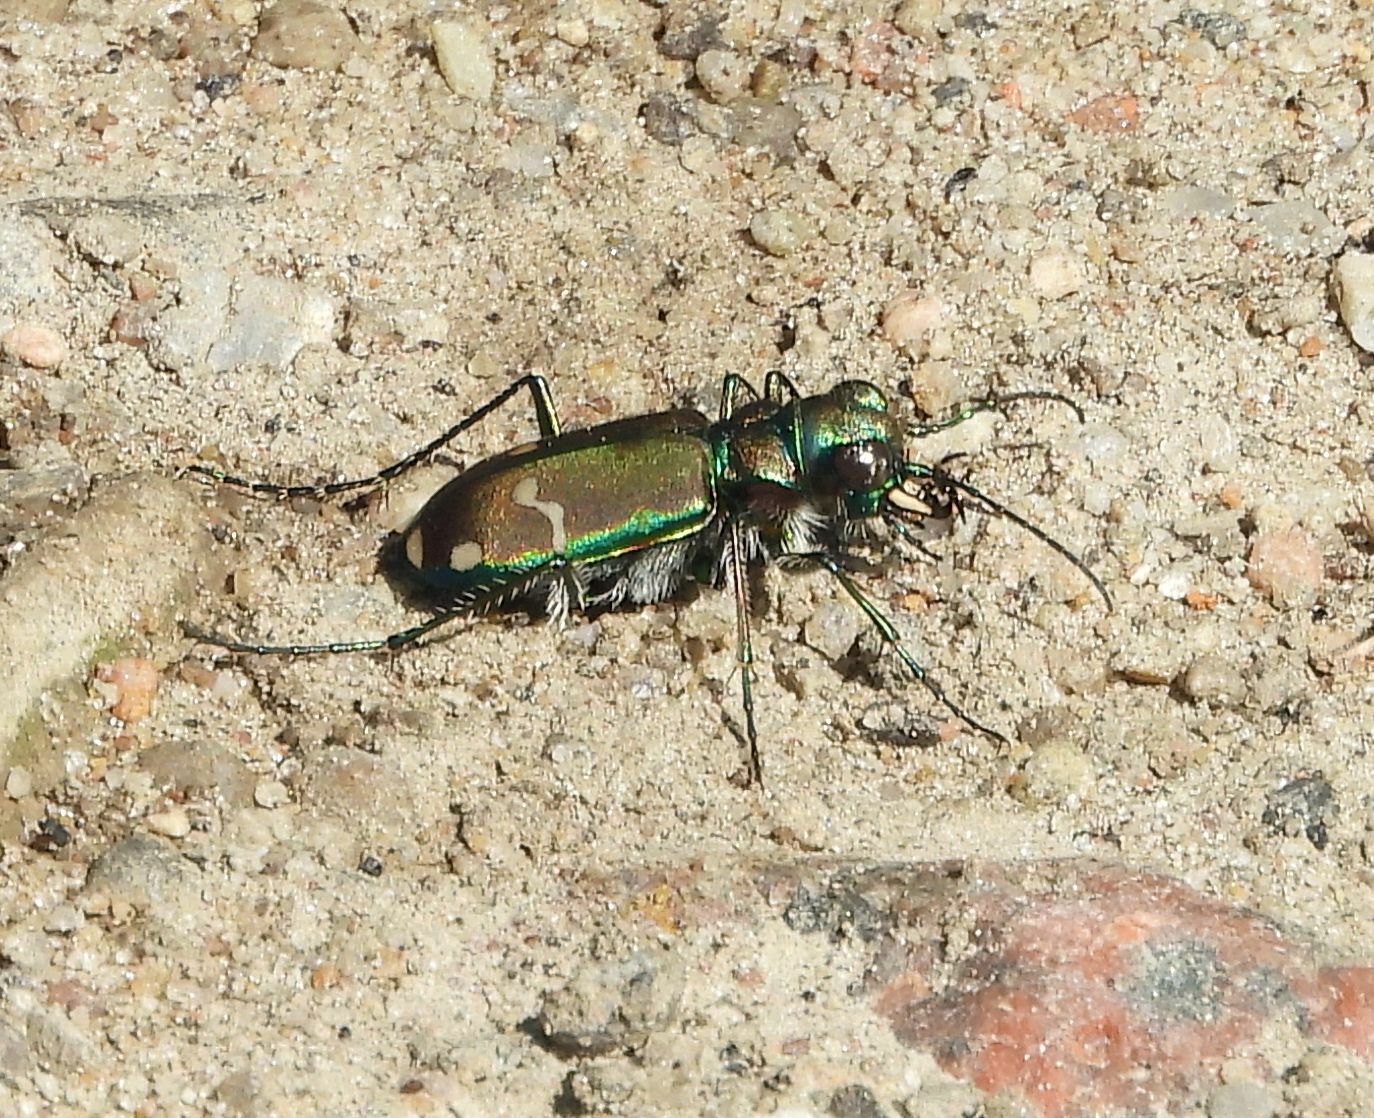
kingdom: Animalia
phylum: Arthropoda
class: Insecta
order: Coleoptera
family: Carabidae
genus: Cicindela
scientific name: Cicindela limbalis
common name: Common claybank tiger beetle
